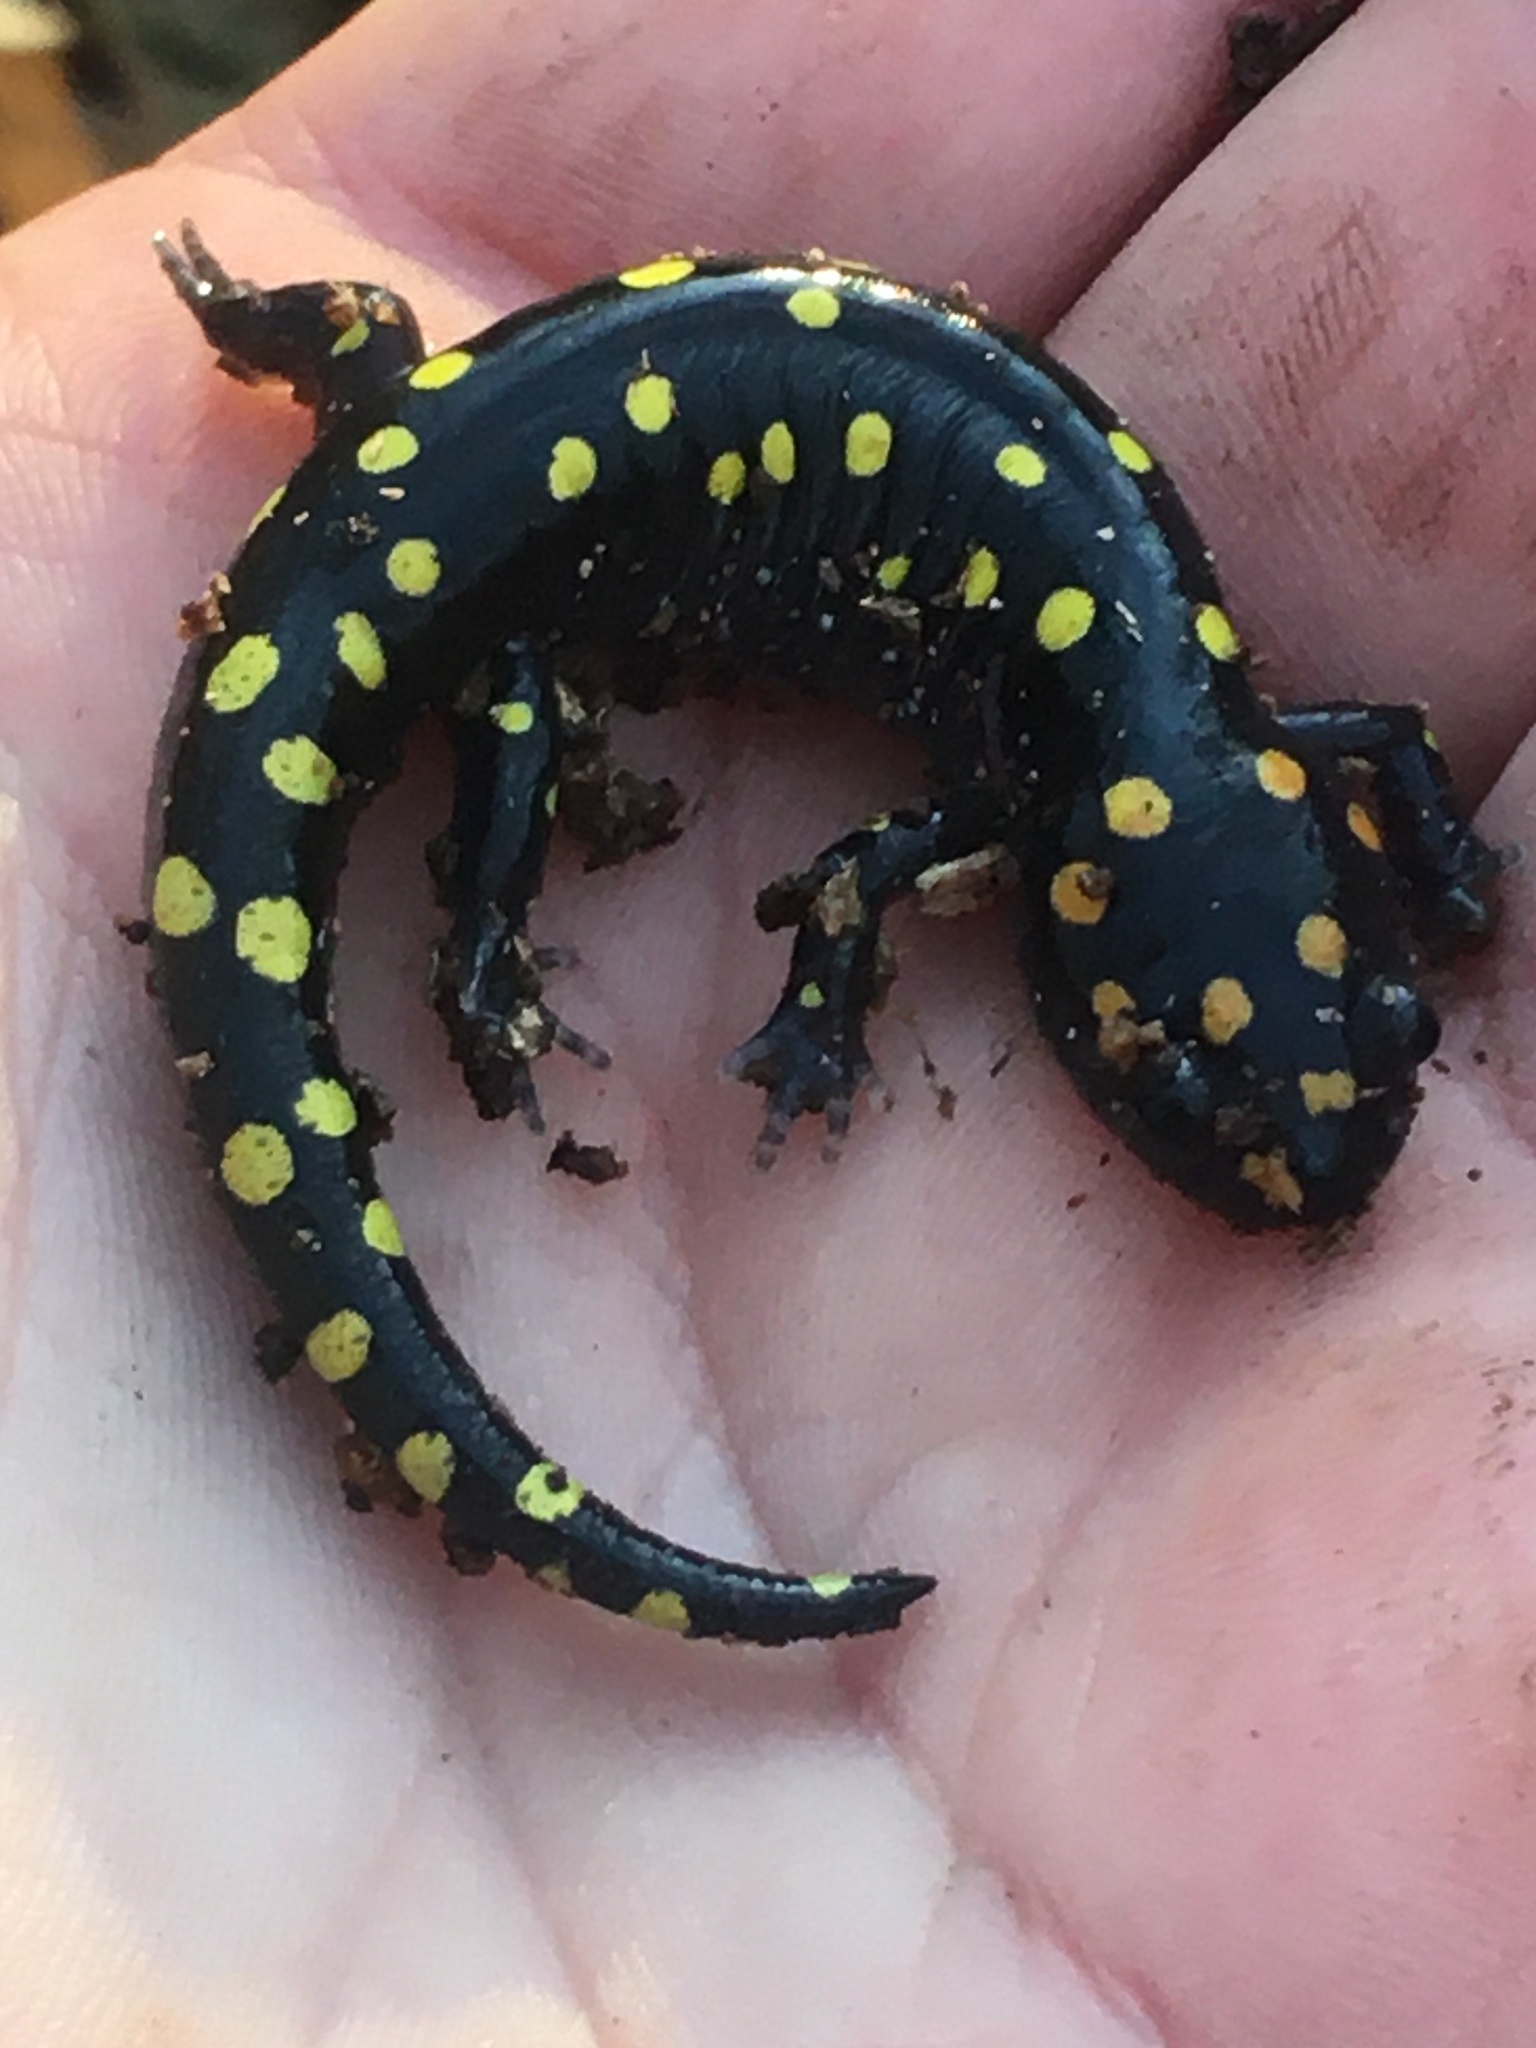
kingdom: Animalia
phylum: Chordata
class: Amphibia
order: Caudata
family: Ambystomatidae
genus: Ambystoma
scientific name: Ambystoma maculatum
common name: Spotted salamander
